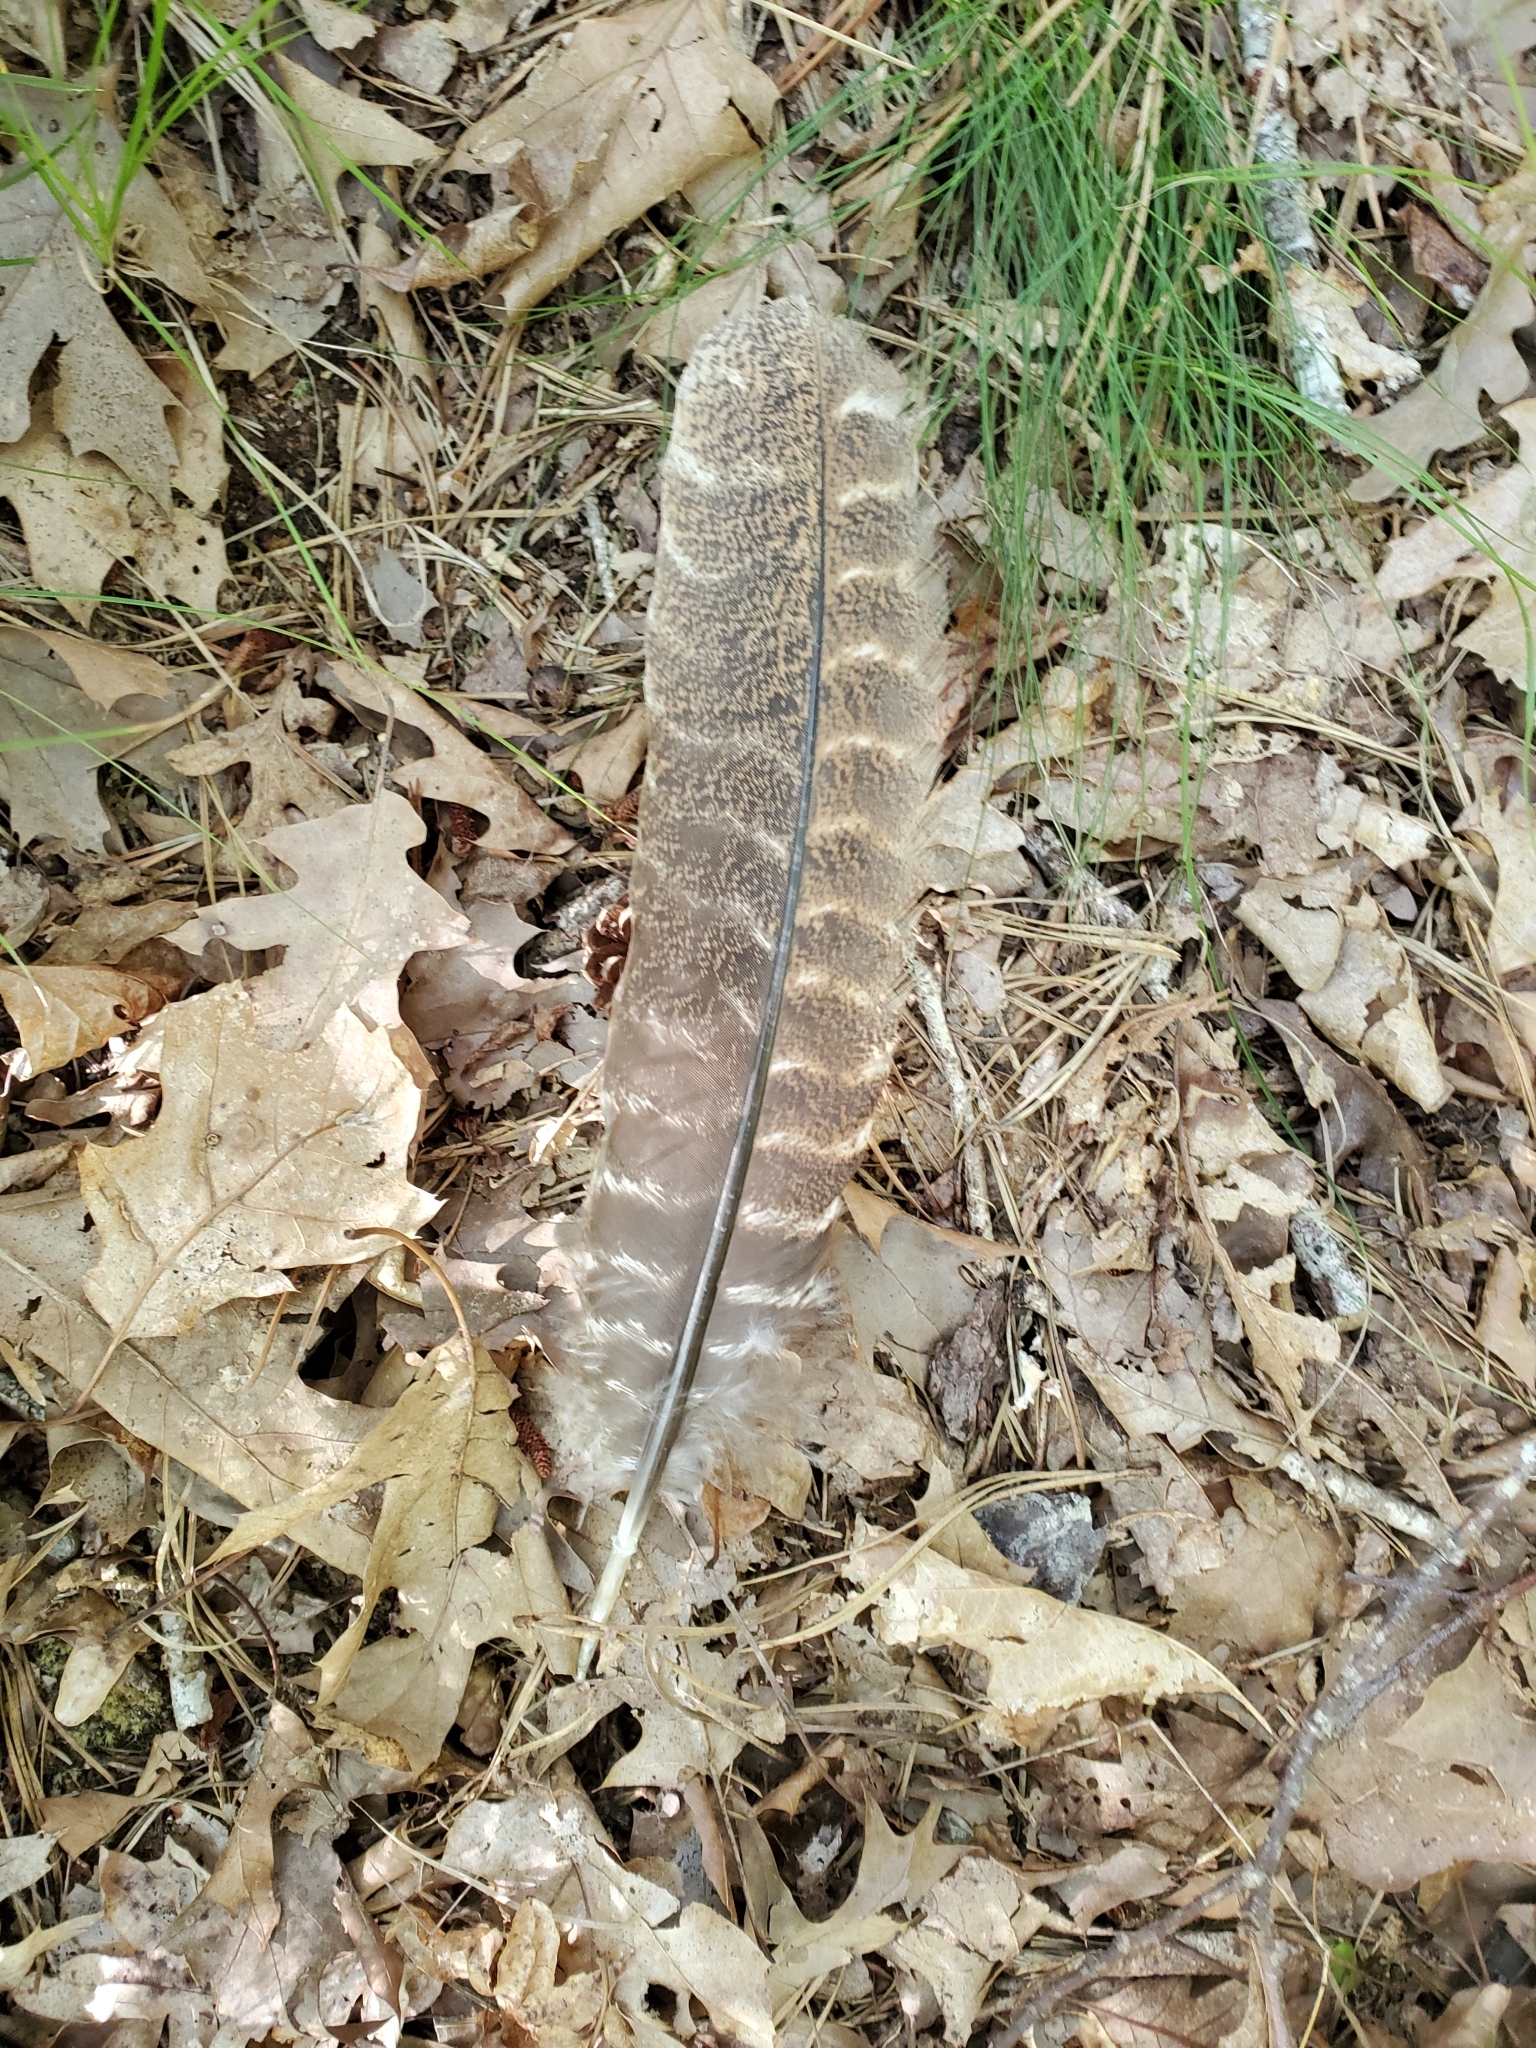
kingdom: Animalia
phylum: Chordata
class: Aves
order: Galliformes
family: Phasianidae
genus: Meleagris
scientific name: Meleagris gallopavo
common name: Wild turkey
